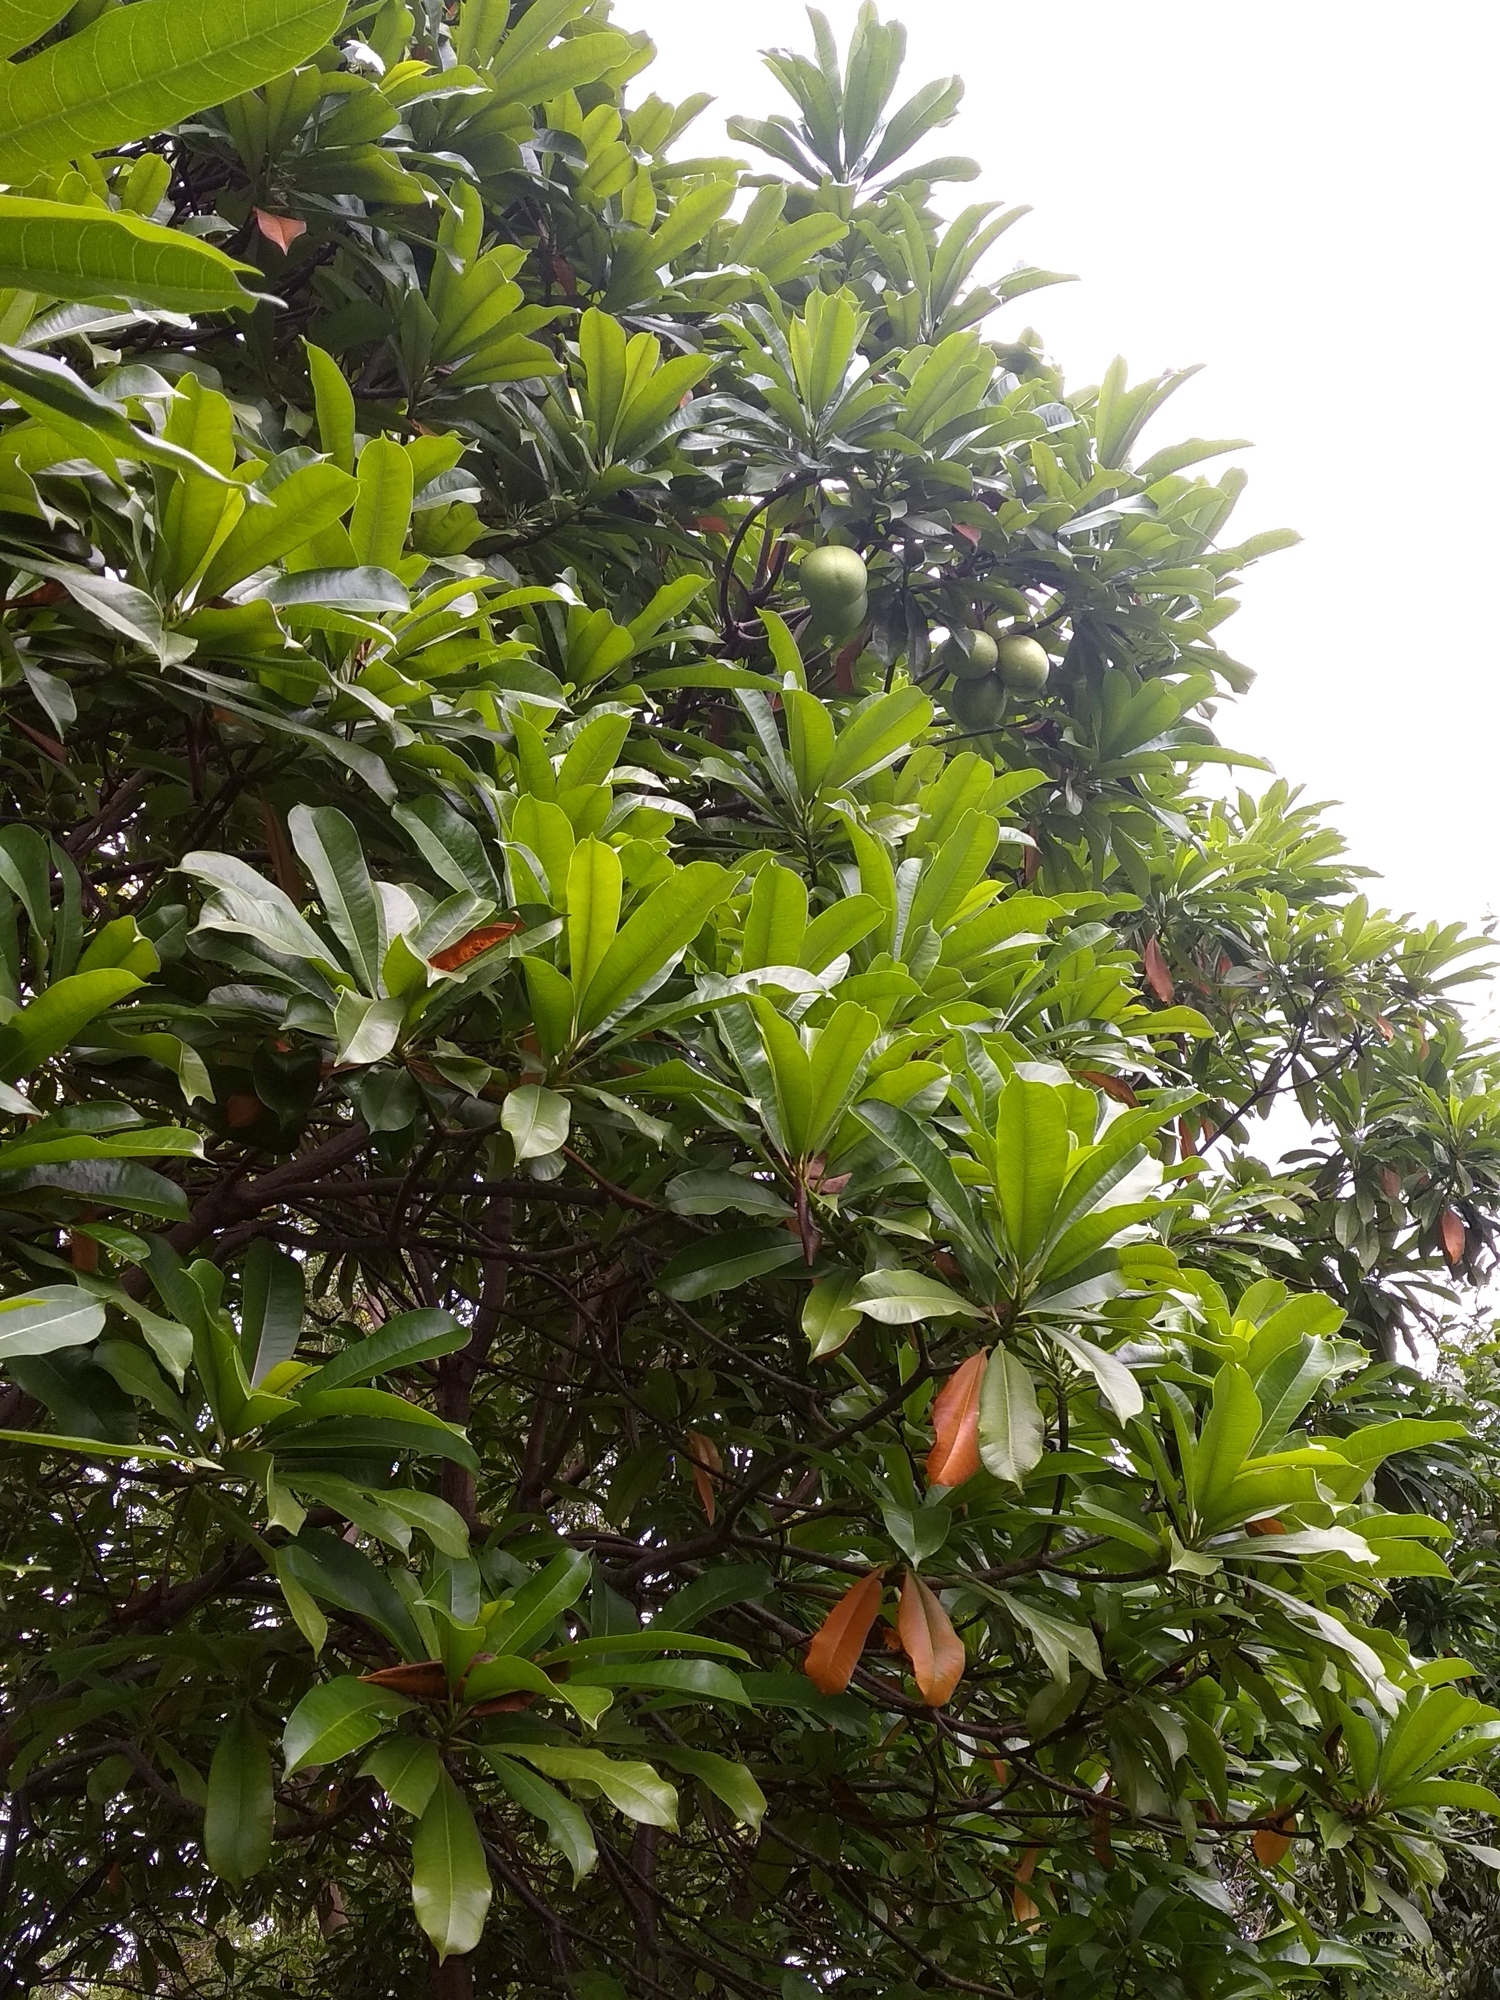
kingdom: Plantae
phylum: Tracheophyta
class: Magnoliopsida
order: Gentianales
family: Apocynaceae
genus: Cerbera
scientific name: Cerbera odollam
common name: Pong-pong
